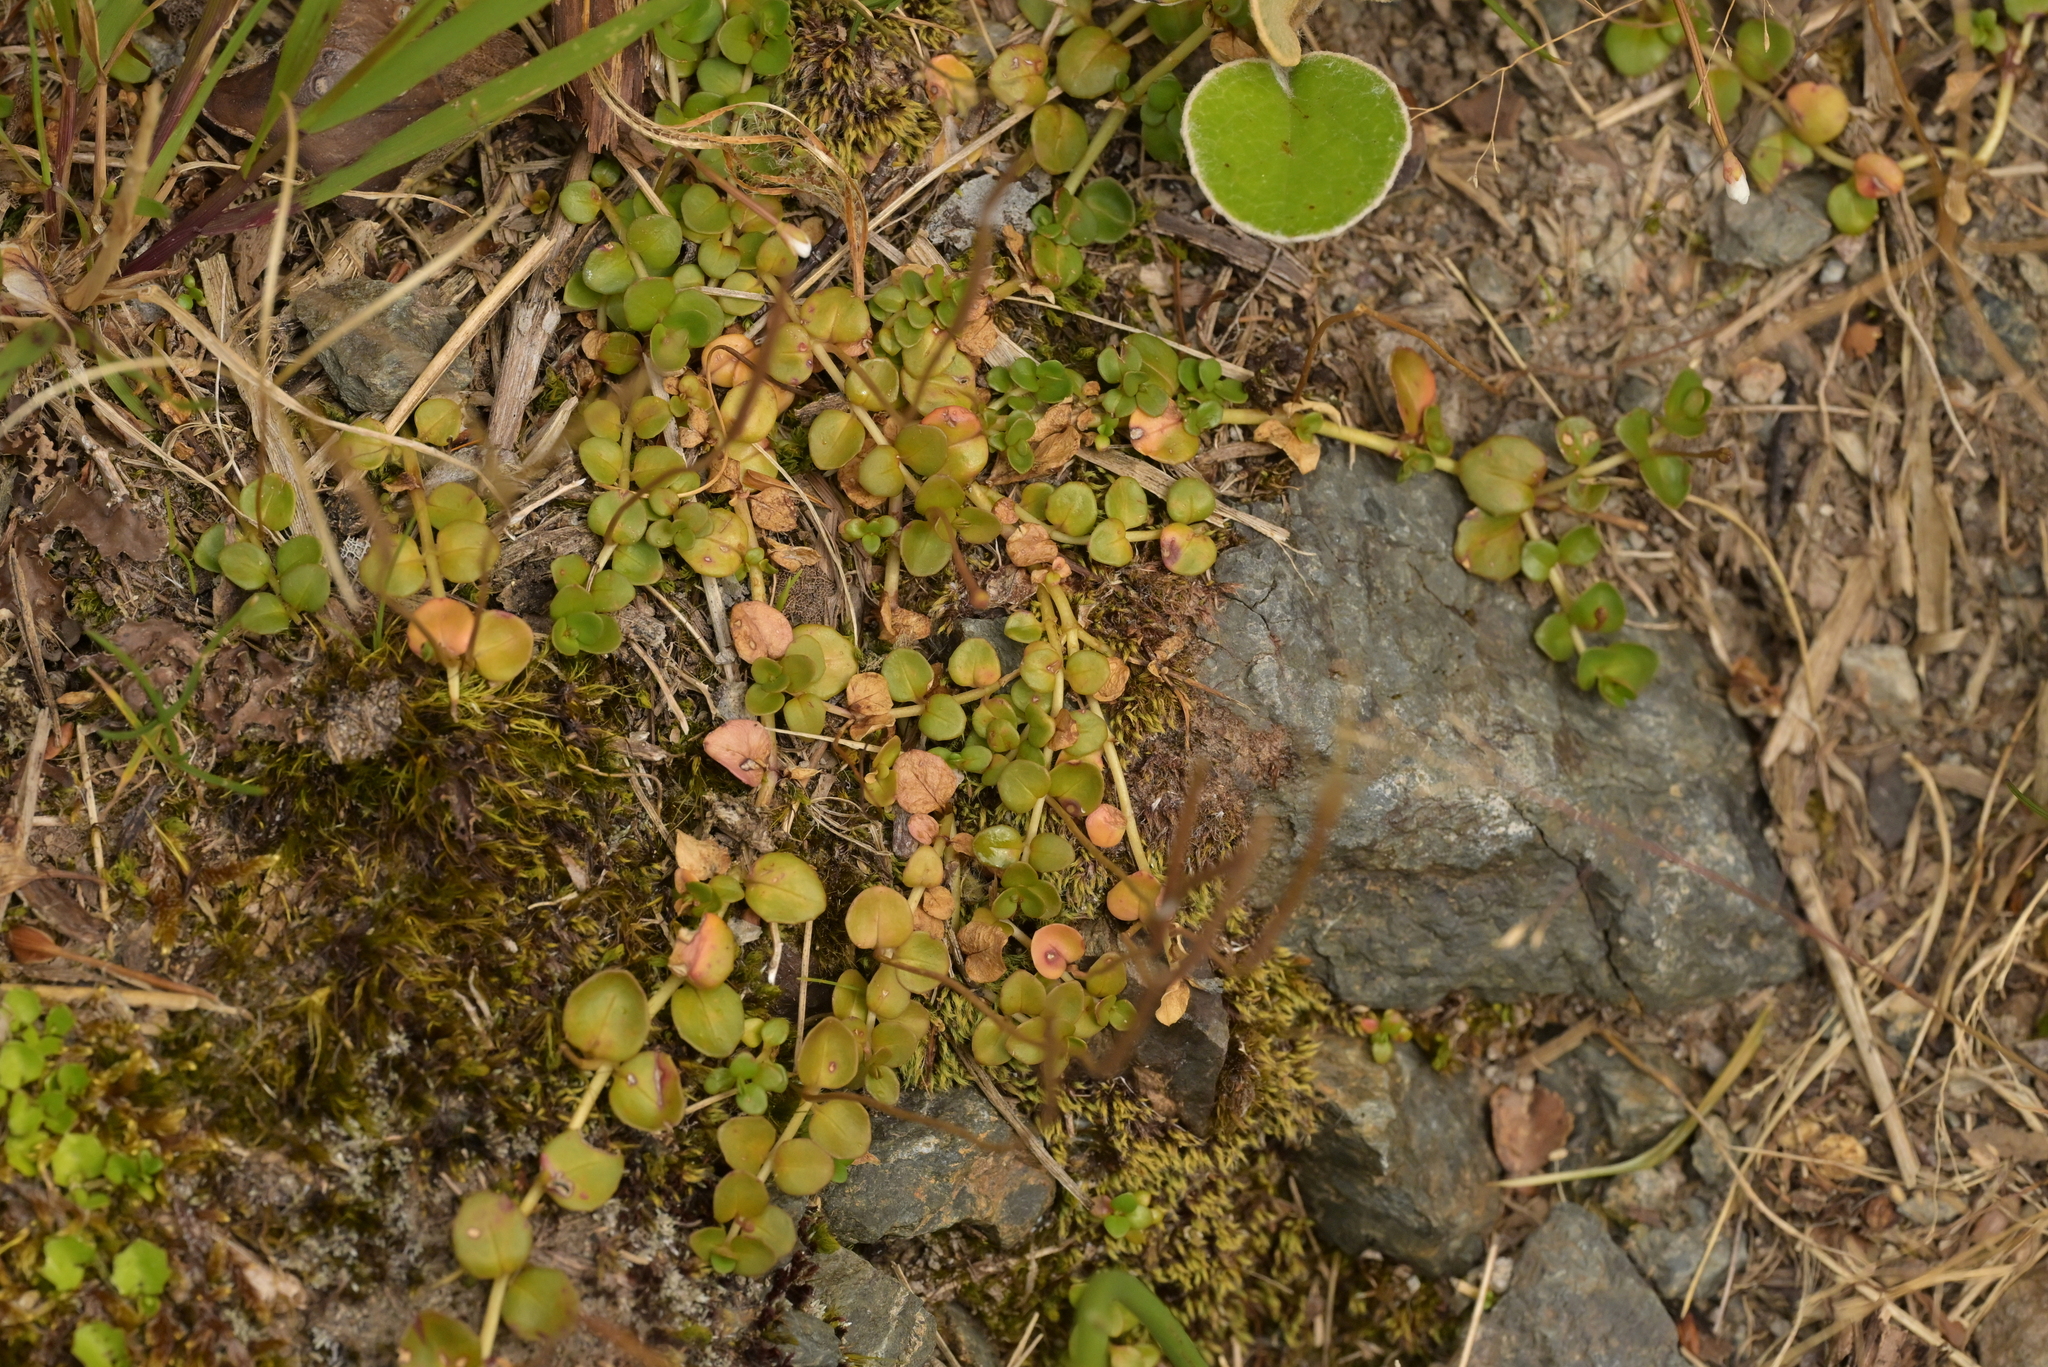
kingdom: Plantae
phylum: Tracheophyta
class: Magnoliopsida
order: Myrtales
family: Onagraceae
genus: Epilobium
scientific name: Epilobium brunnescens
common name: New zealand willowherb
